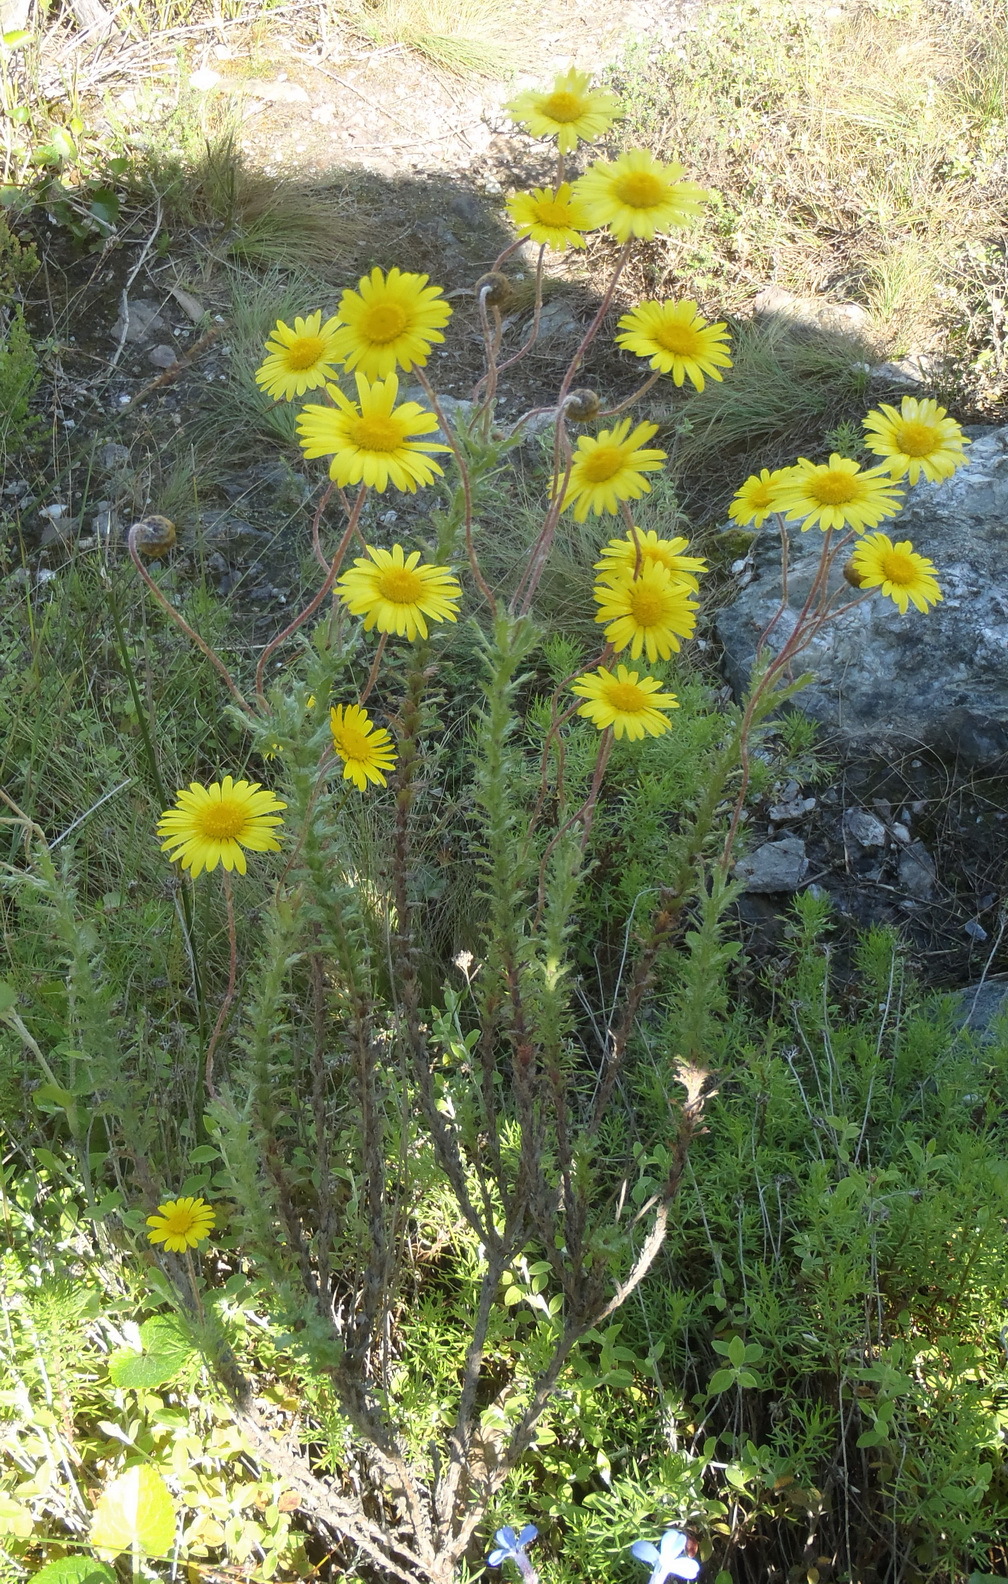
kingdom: Plantae
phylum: Tracheophyta
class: Magnoliopsida
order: Asterales
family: Asteraceae
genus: Ursinia
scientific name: Ursinia serrata
